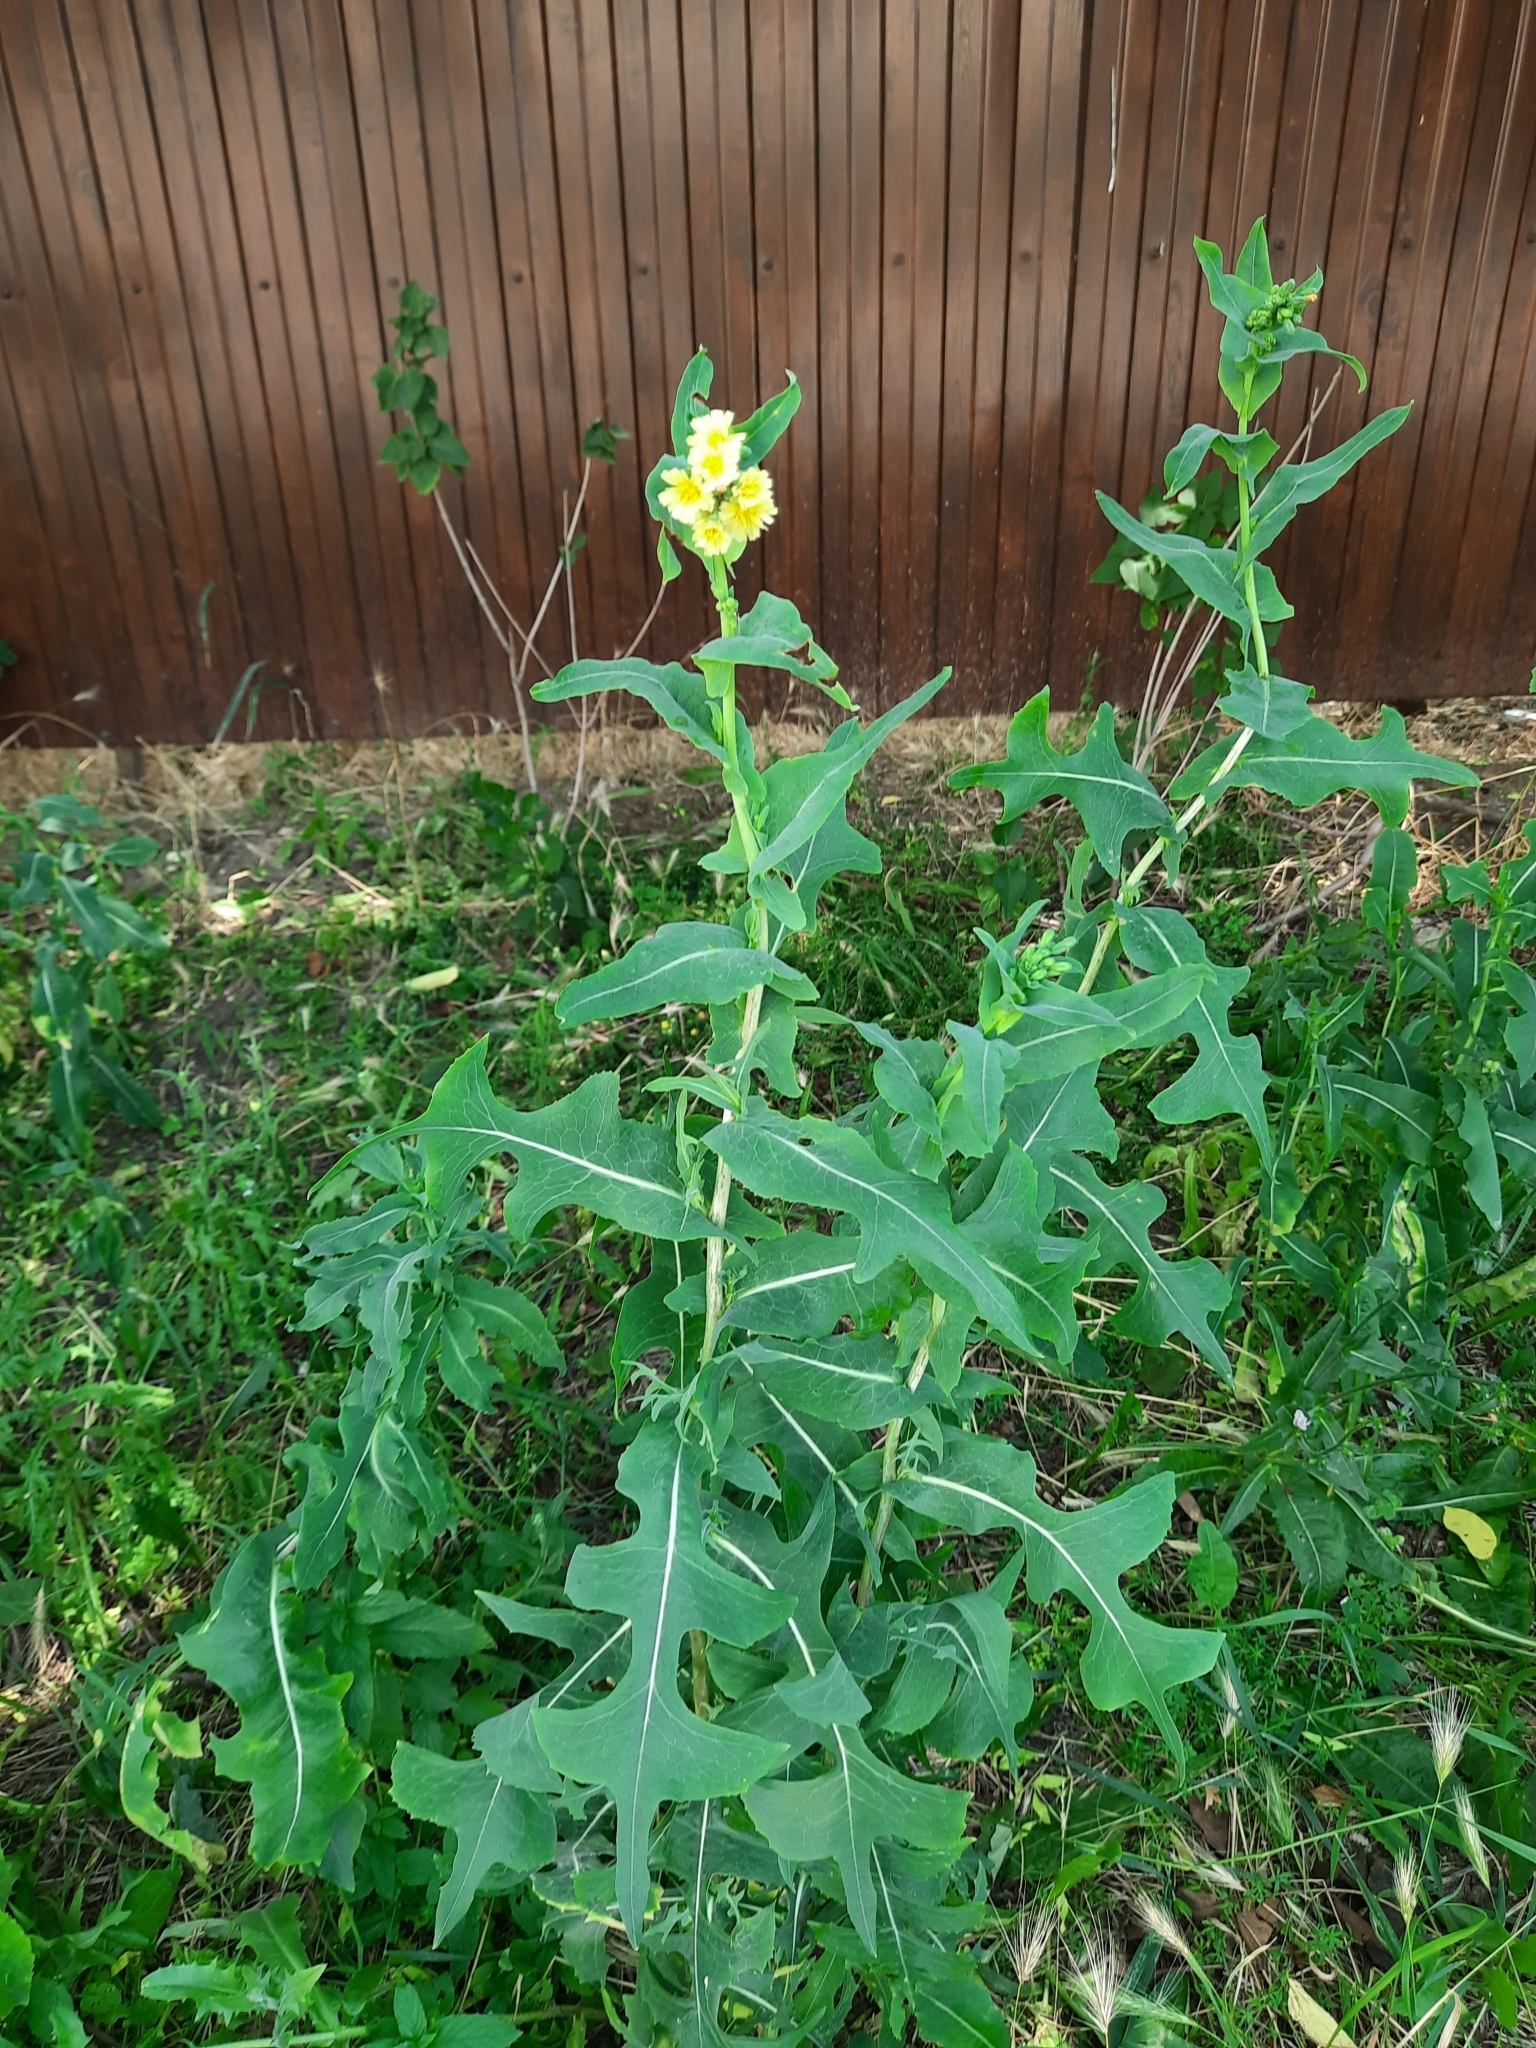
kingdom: Plantae
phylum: Tracheophyta
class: Magnoliopsida
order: Asterales
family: Asteraceae
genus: Lactuca
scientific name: Lactuca serriola
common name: Prickly lettuce
